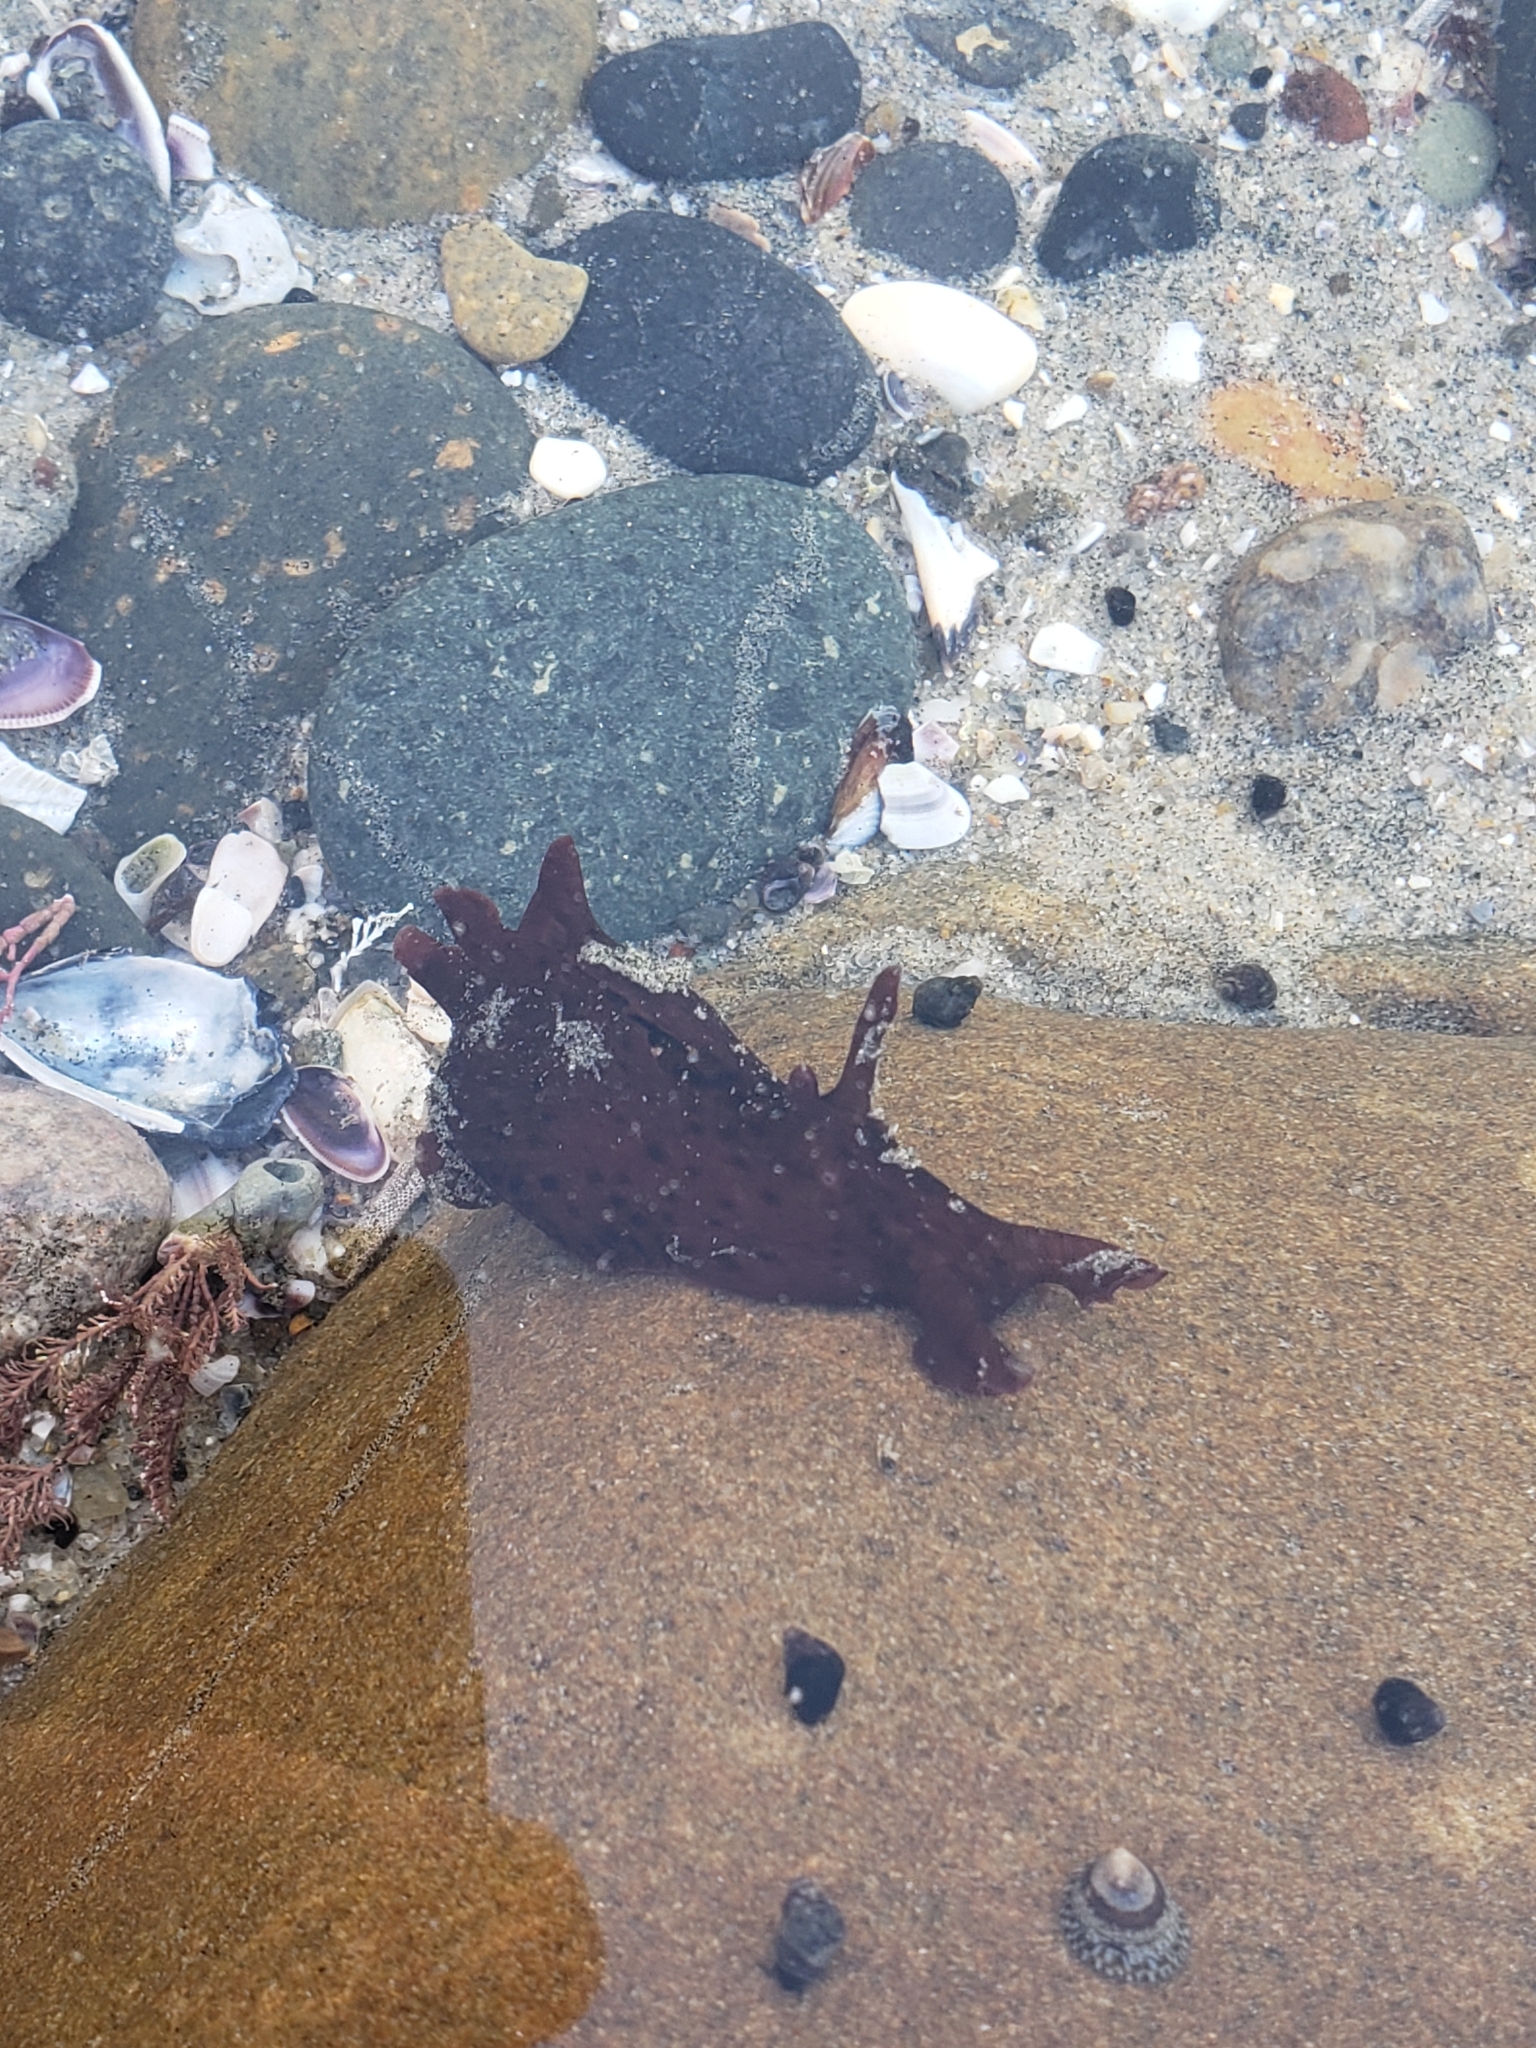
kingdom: Animalia
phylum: Mollusca
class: Gastropoda
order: Aplysiida
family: Aplysiidae
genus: Aplysia
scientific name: Aplysia californica
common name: California seahare
